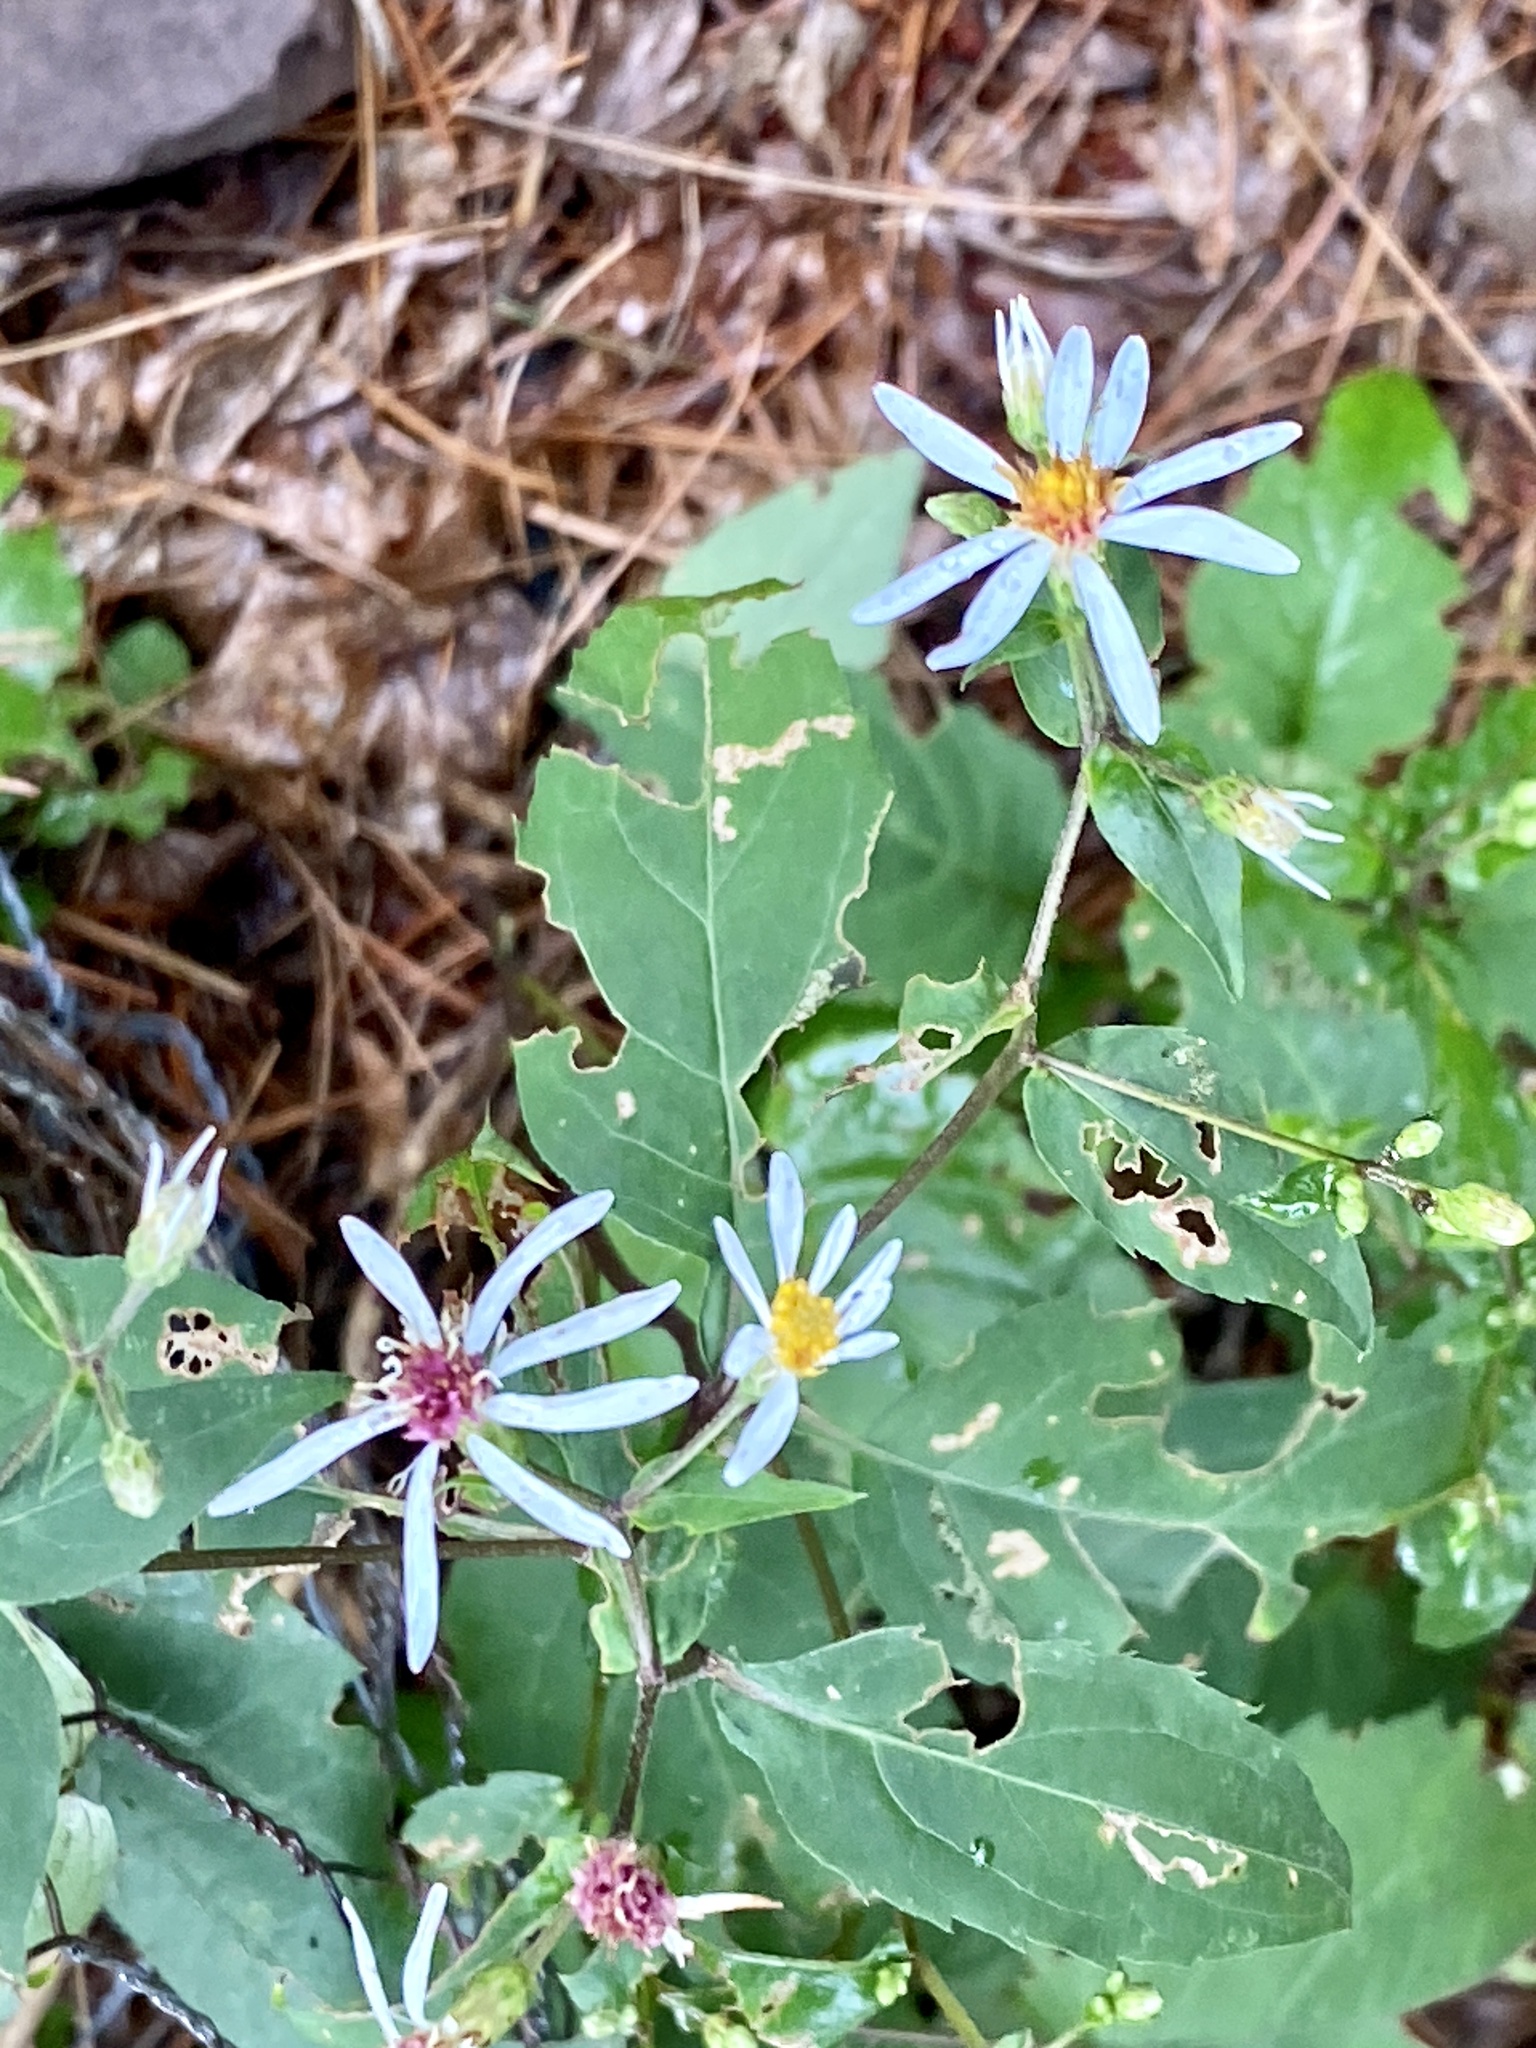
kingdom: Plantae
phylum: Tracheophyta
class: Magnoliopsida
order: Asterales
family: Asteraceae
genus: Eurybia
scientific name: Eurybia divaricata
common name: White wood aster
